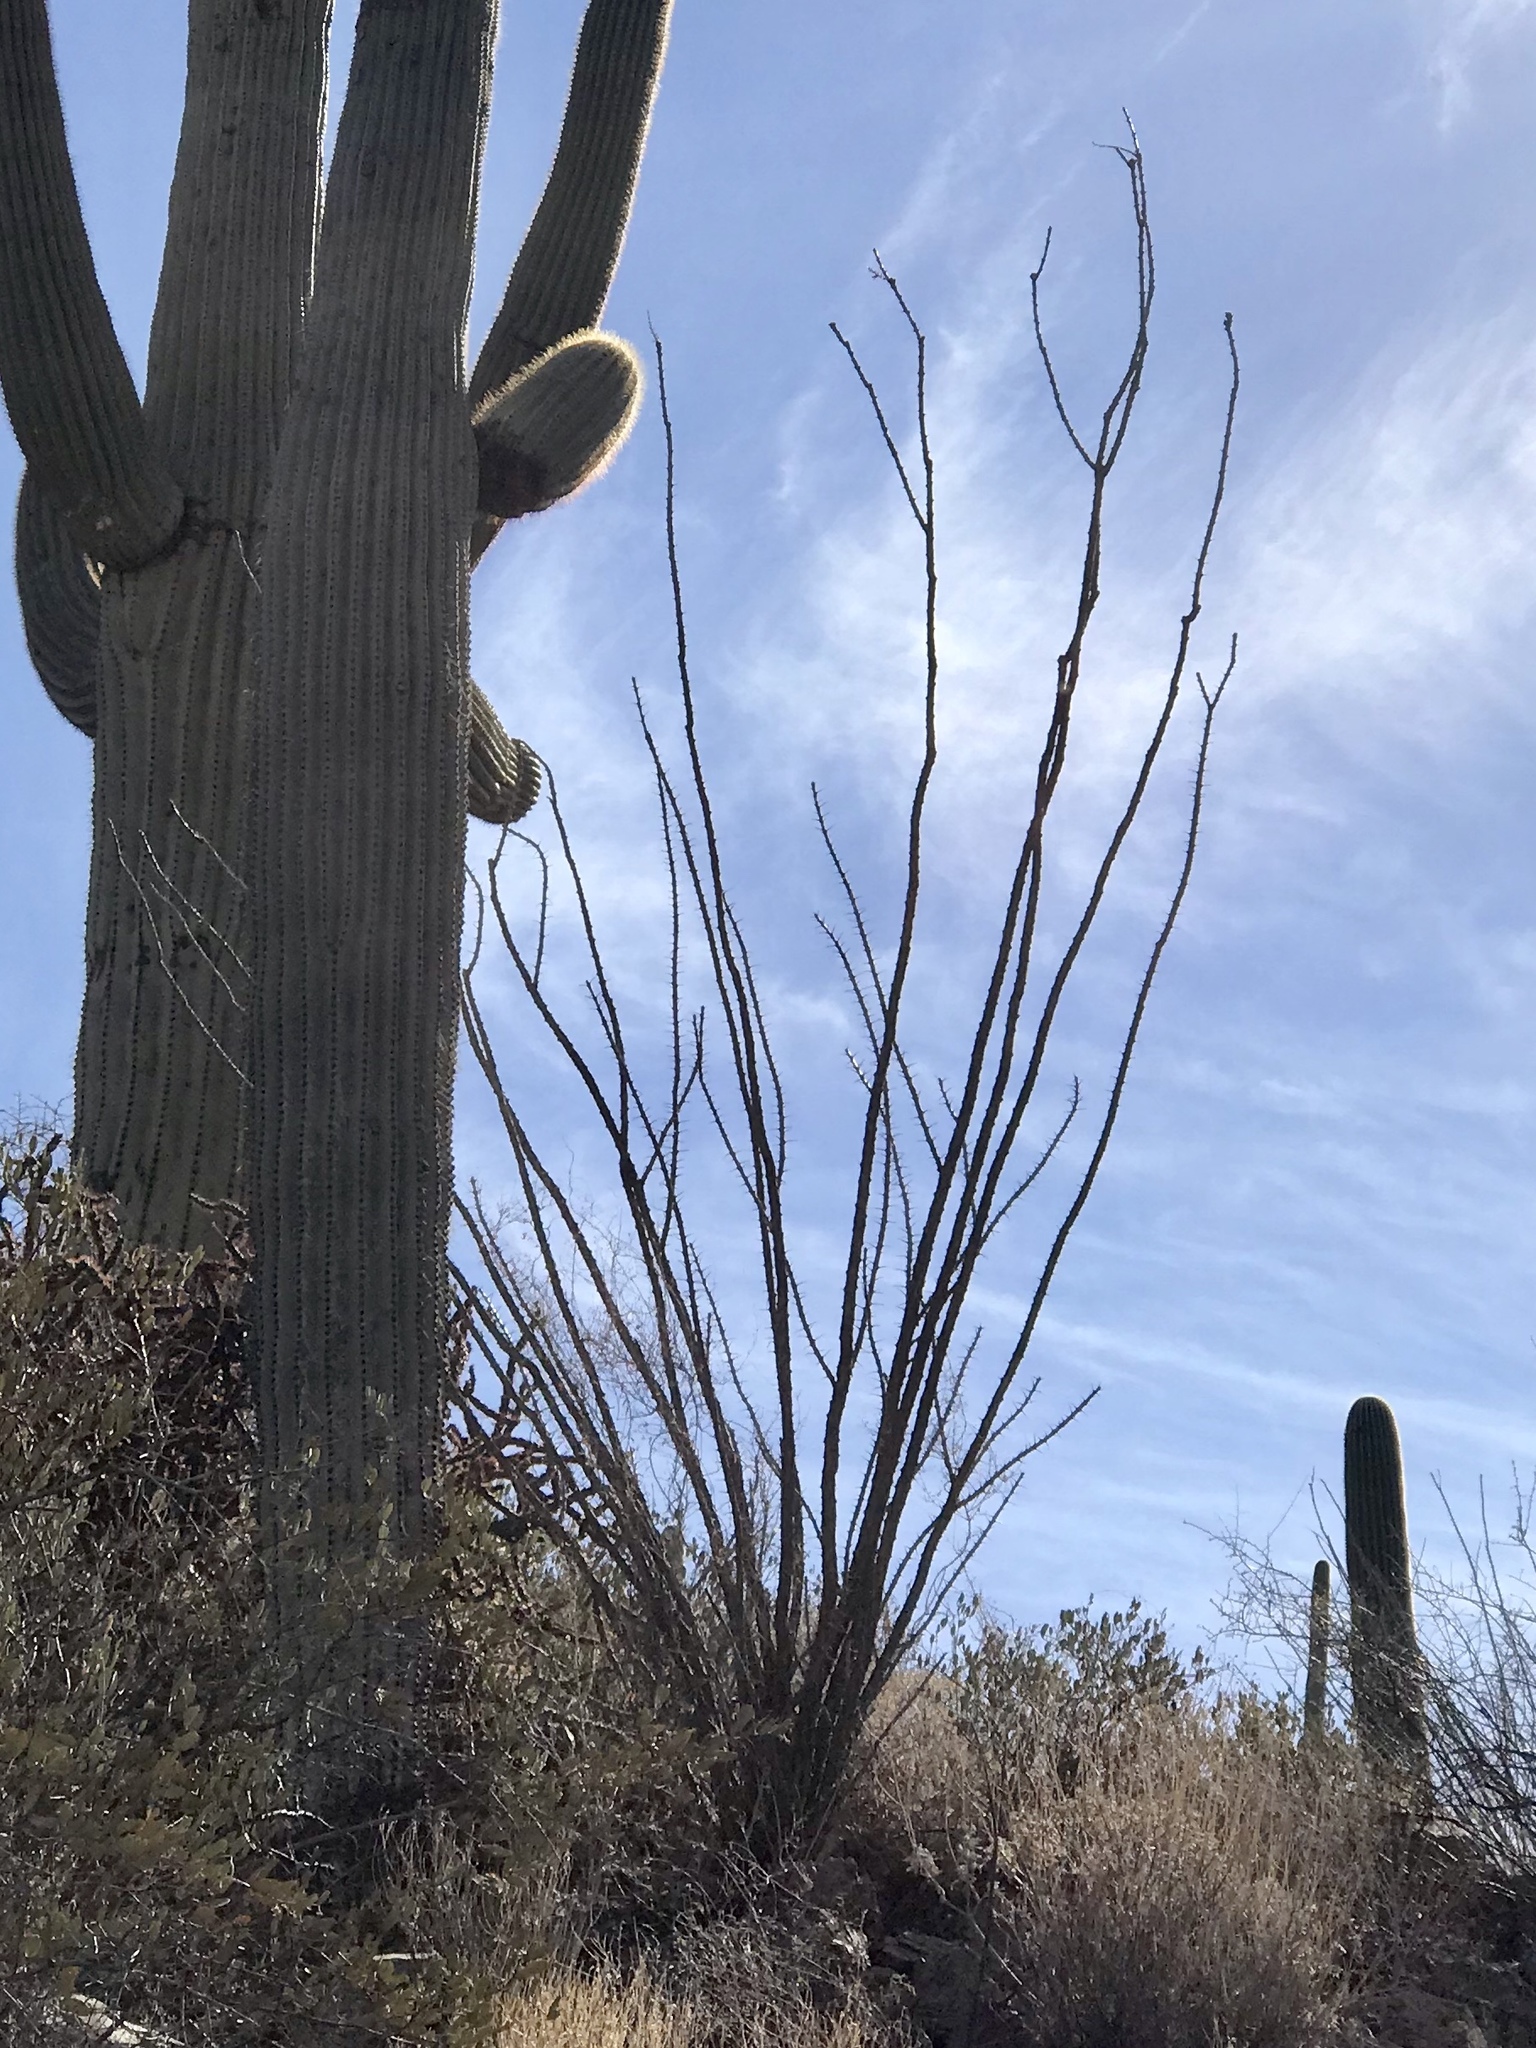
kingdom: Plantae
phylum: Tracheophyta
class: Magnoliopsida
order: Ericales
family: Fouquieriaceae
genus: Fouquieria
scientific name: Fouquieria splendens
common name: Vine-cactus
